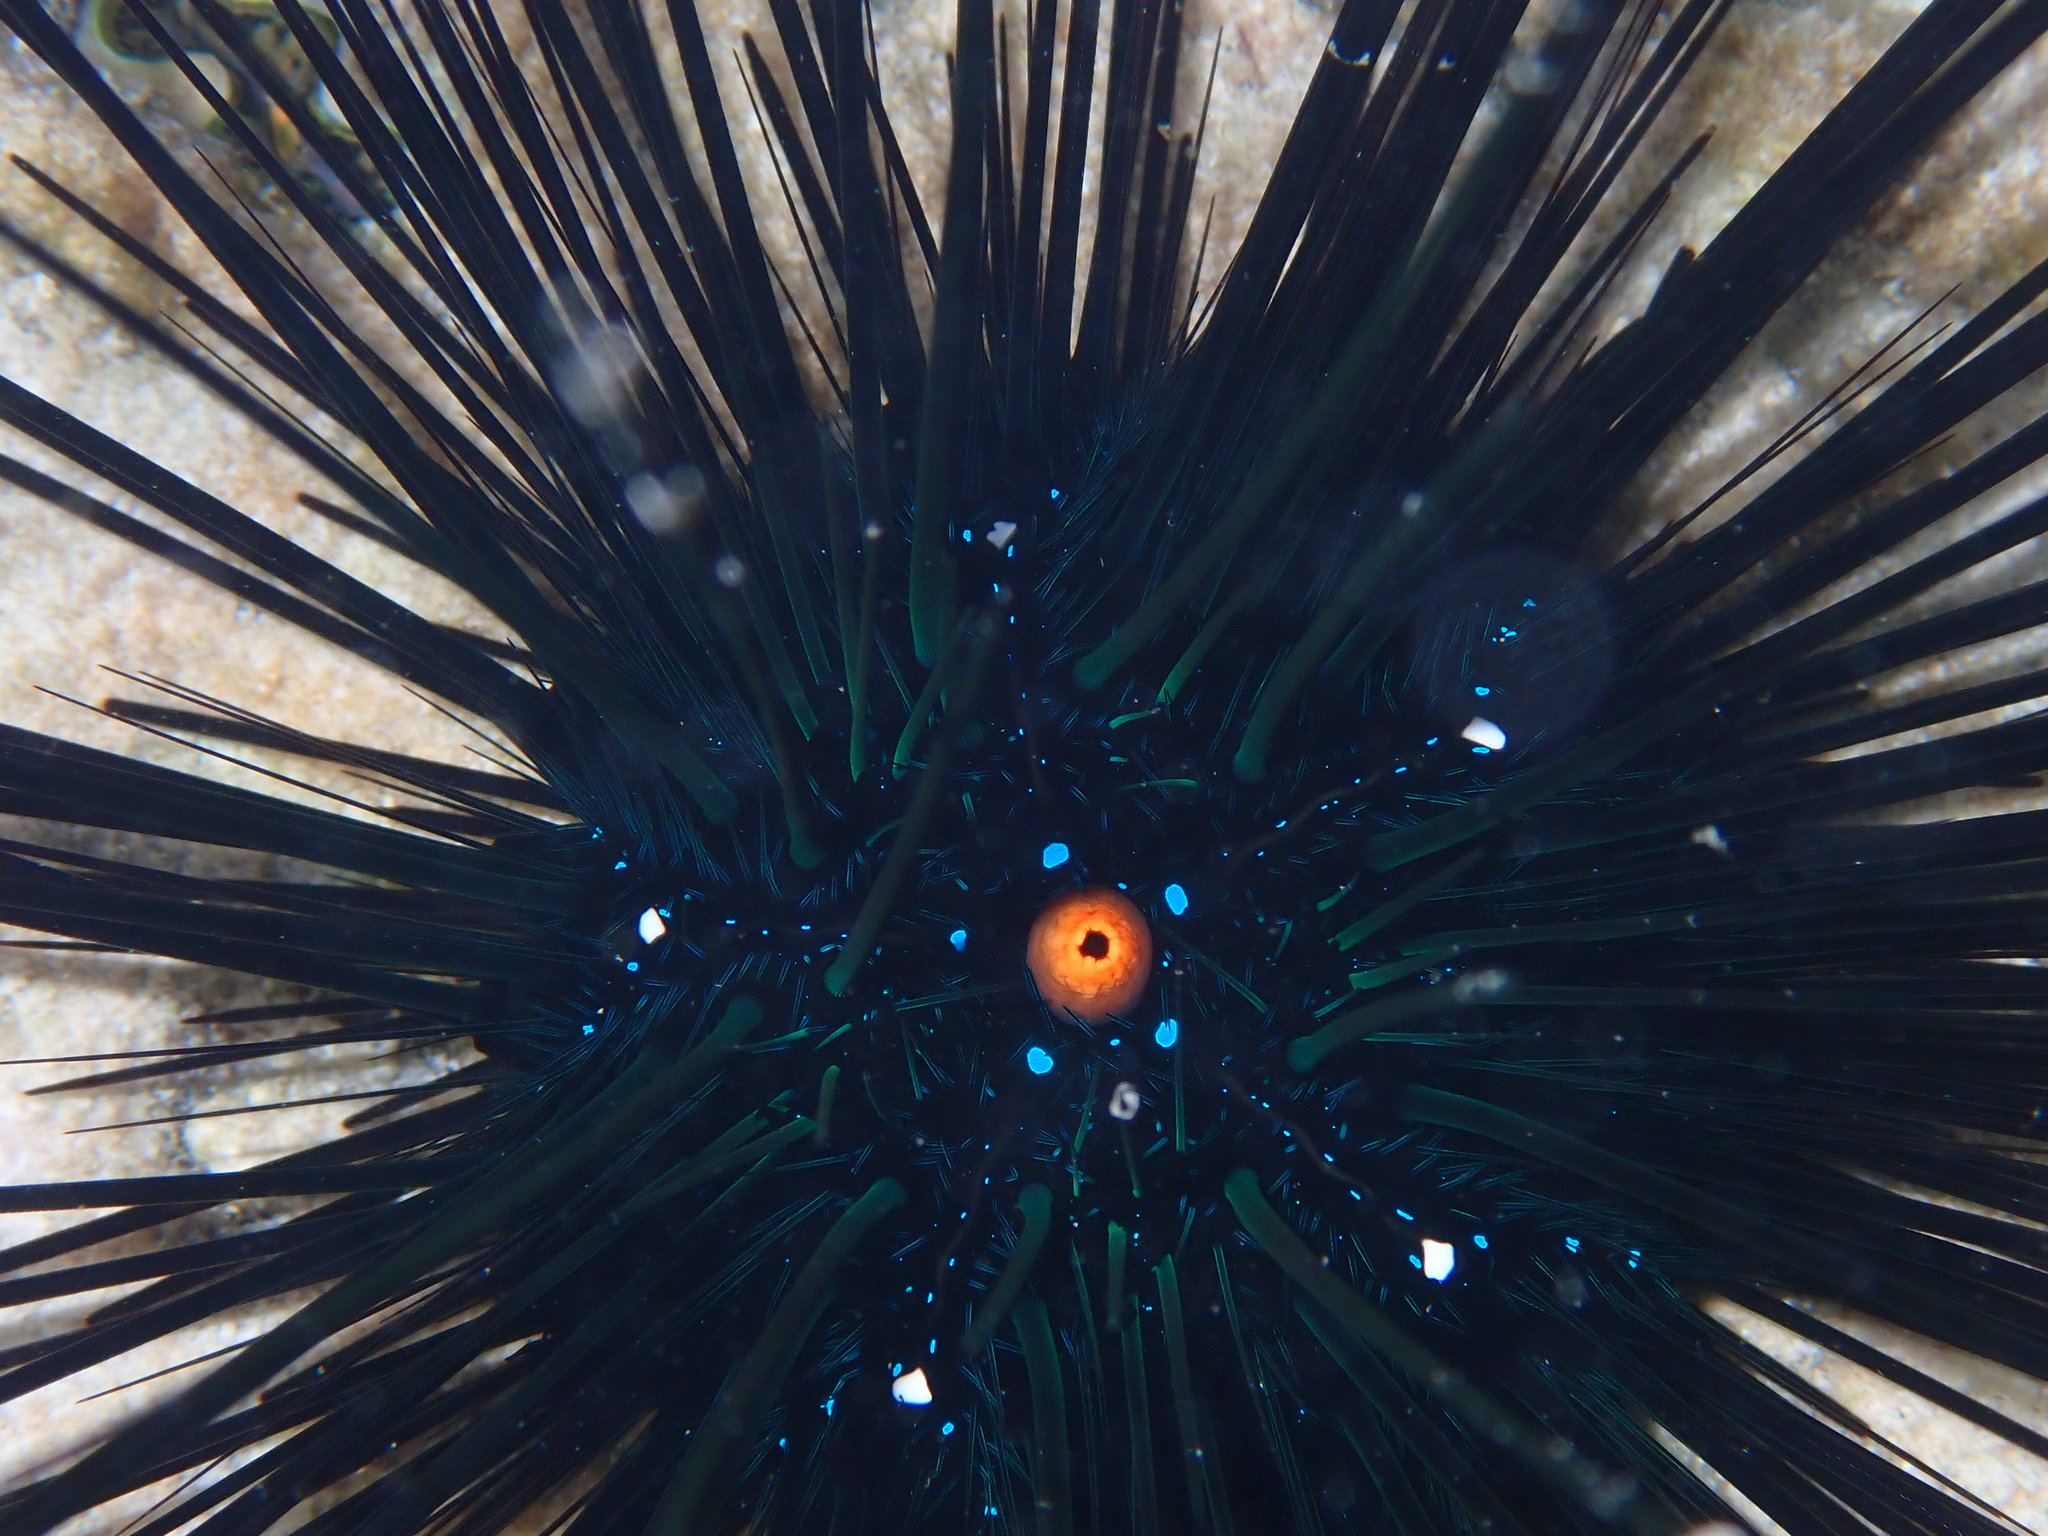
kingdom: Animalia
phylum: Echinodermata
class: Echinoidea
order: Diadematoida
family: Diadematidae
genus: Diadema
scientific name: Diadema setosum
